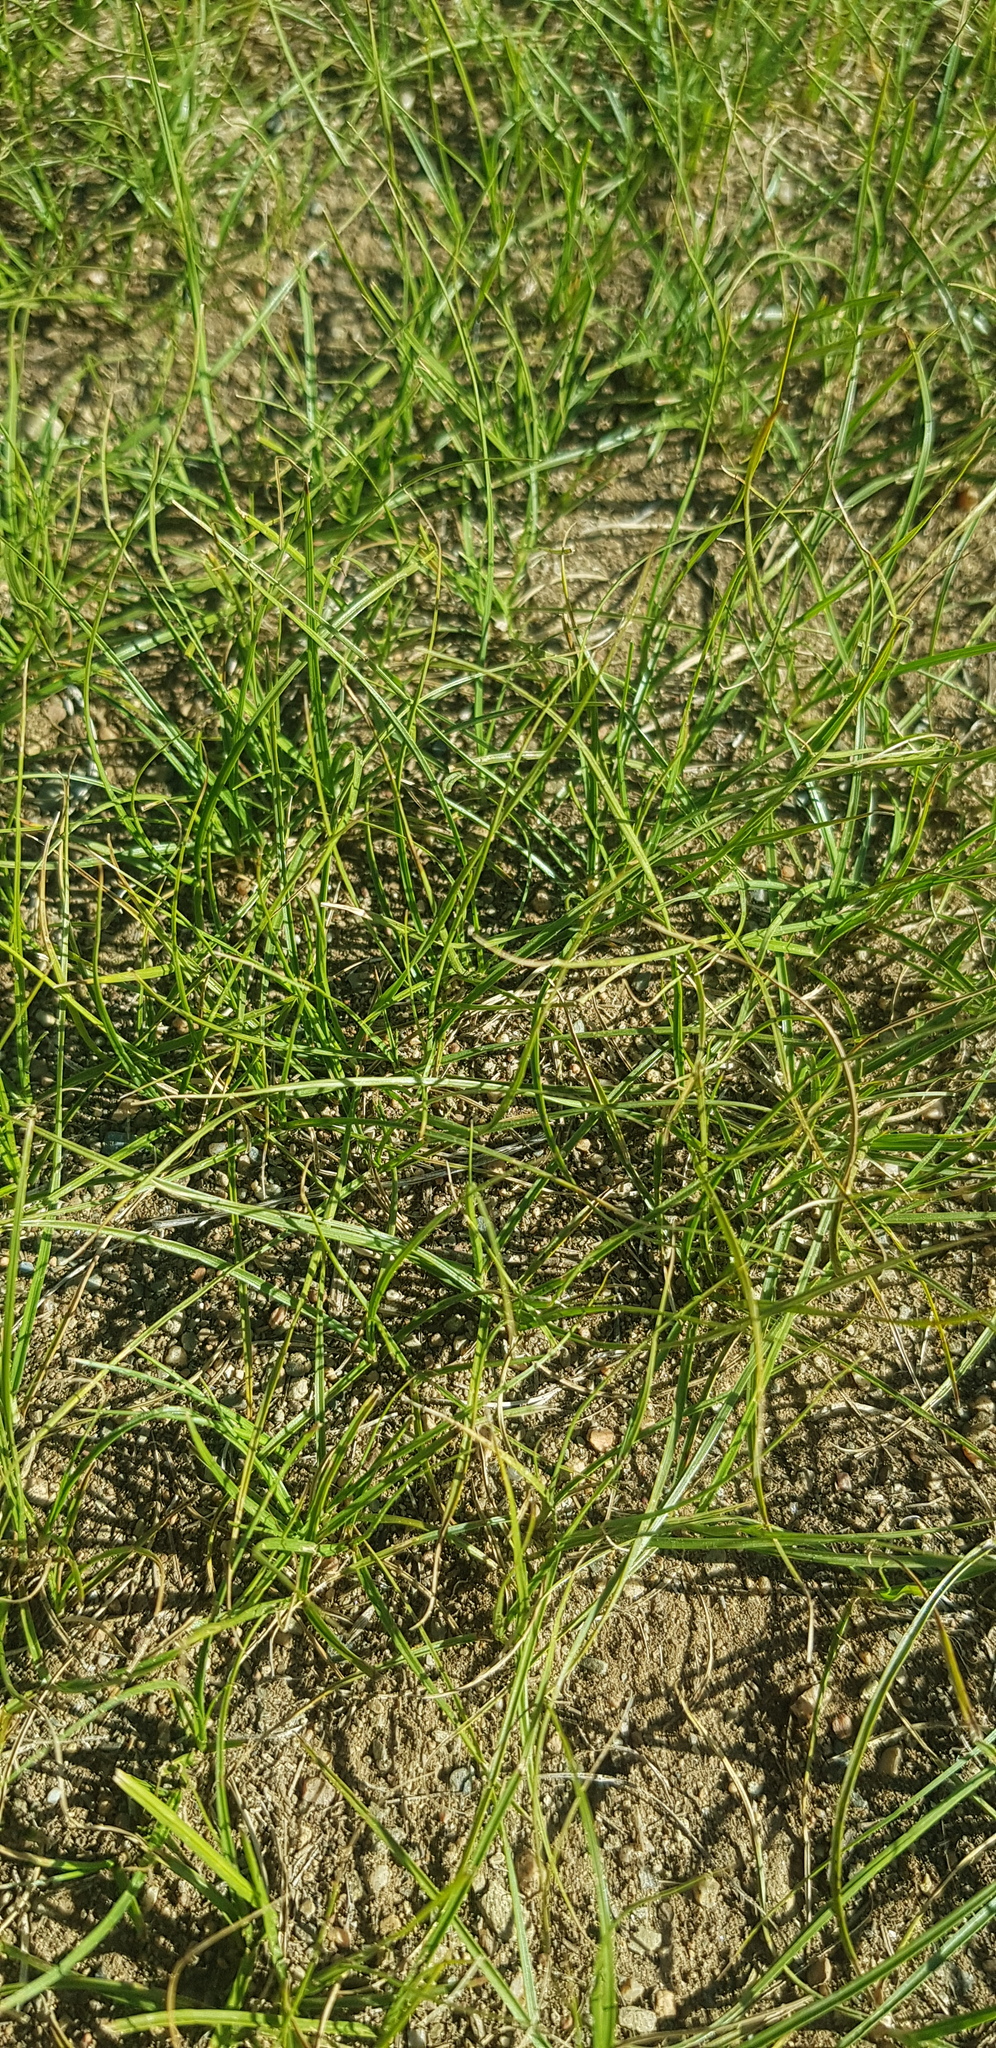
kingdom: Plantae
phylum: Tracheophyta
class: Liliopsida
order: Poales
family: Cyperaceae
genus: Carex
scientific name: Carex duriuscula
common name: Involute-leaved sedge
